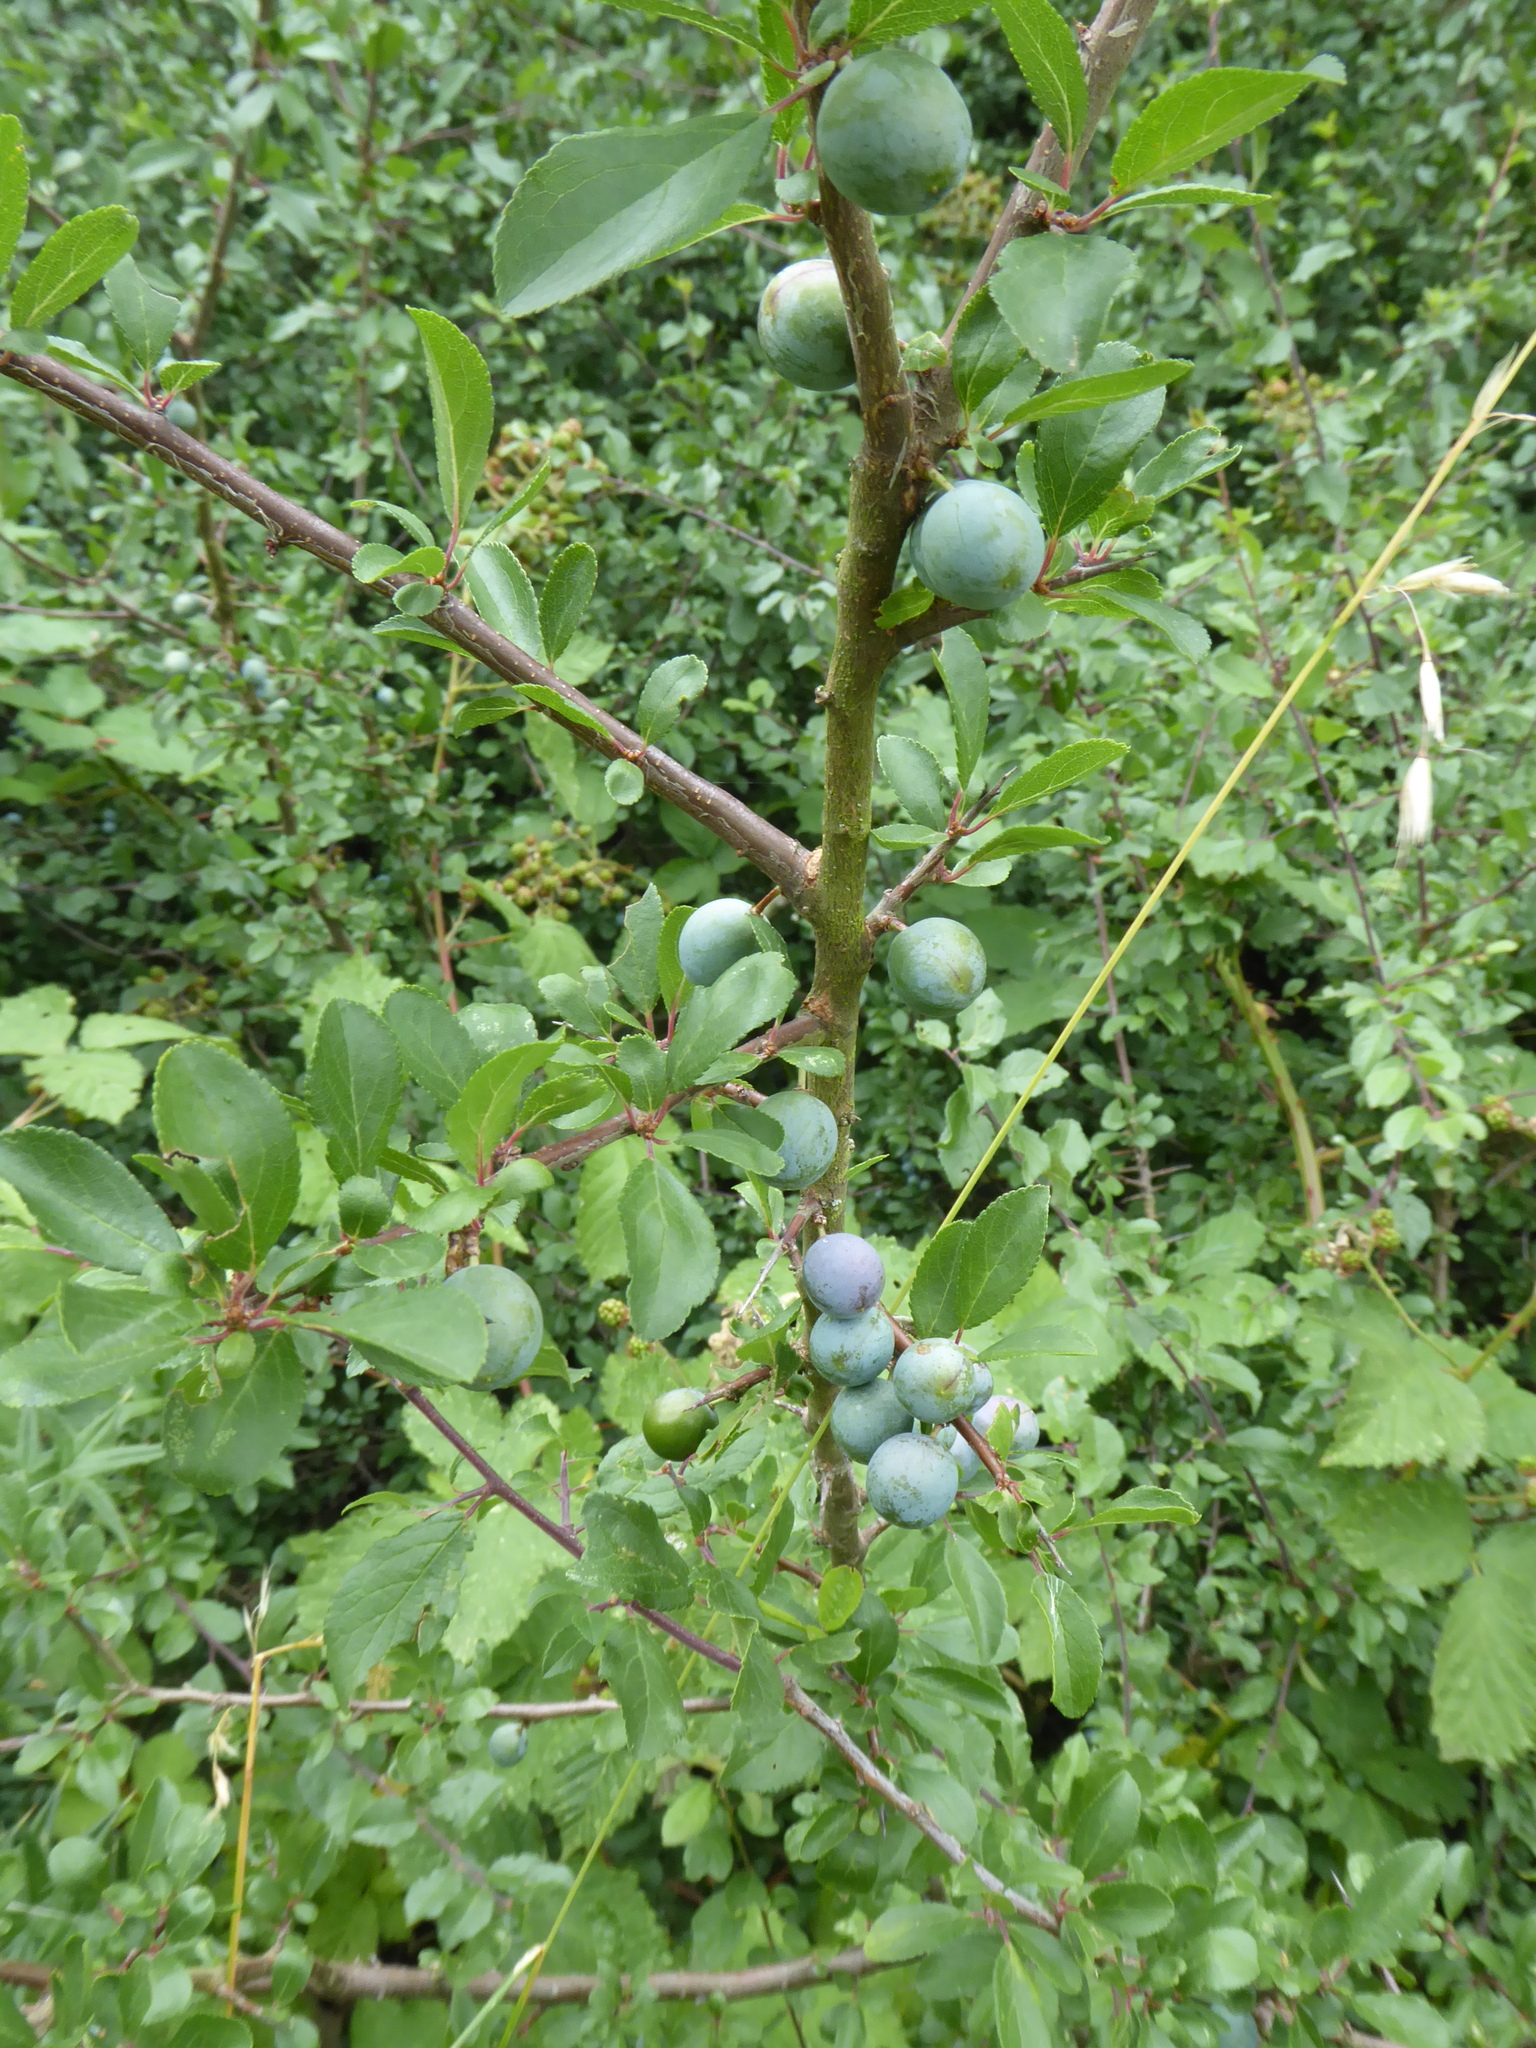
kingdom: Plantae
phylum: Tracheophyta
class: Magnoliopsida
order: Rosales
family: Rosaceae
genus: Prunus
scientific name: Prunus spinosa
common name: Blackthorn
